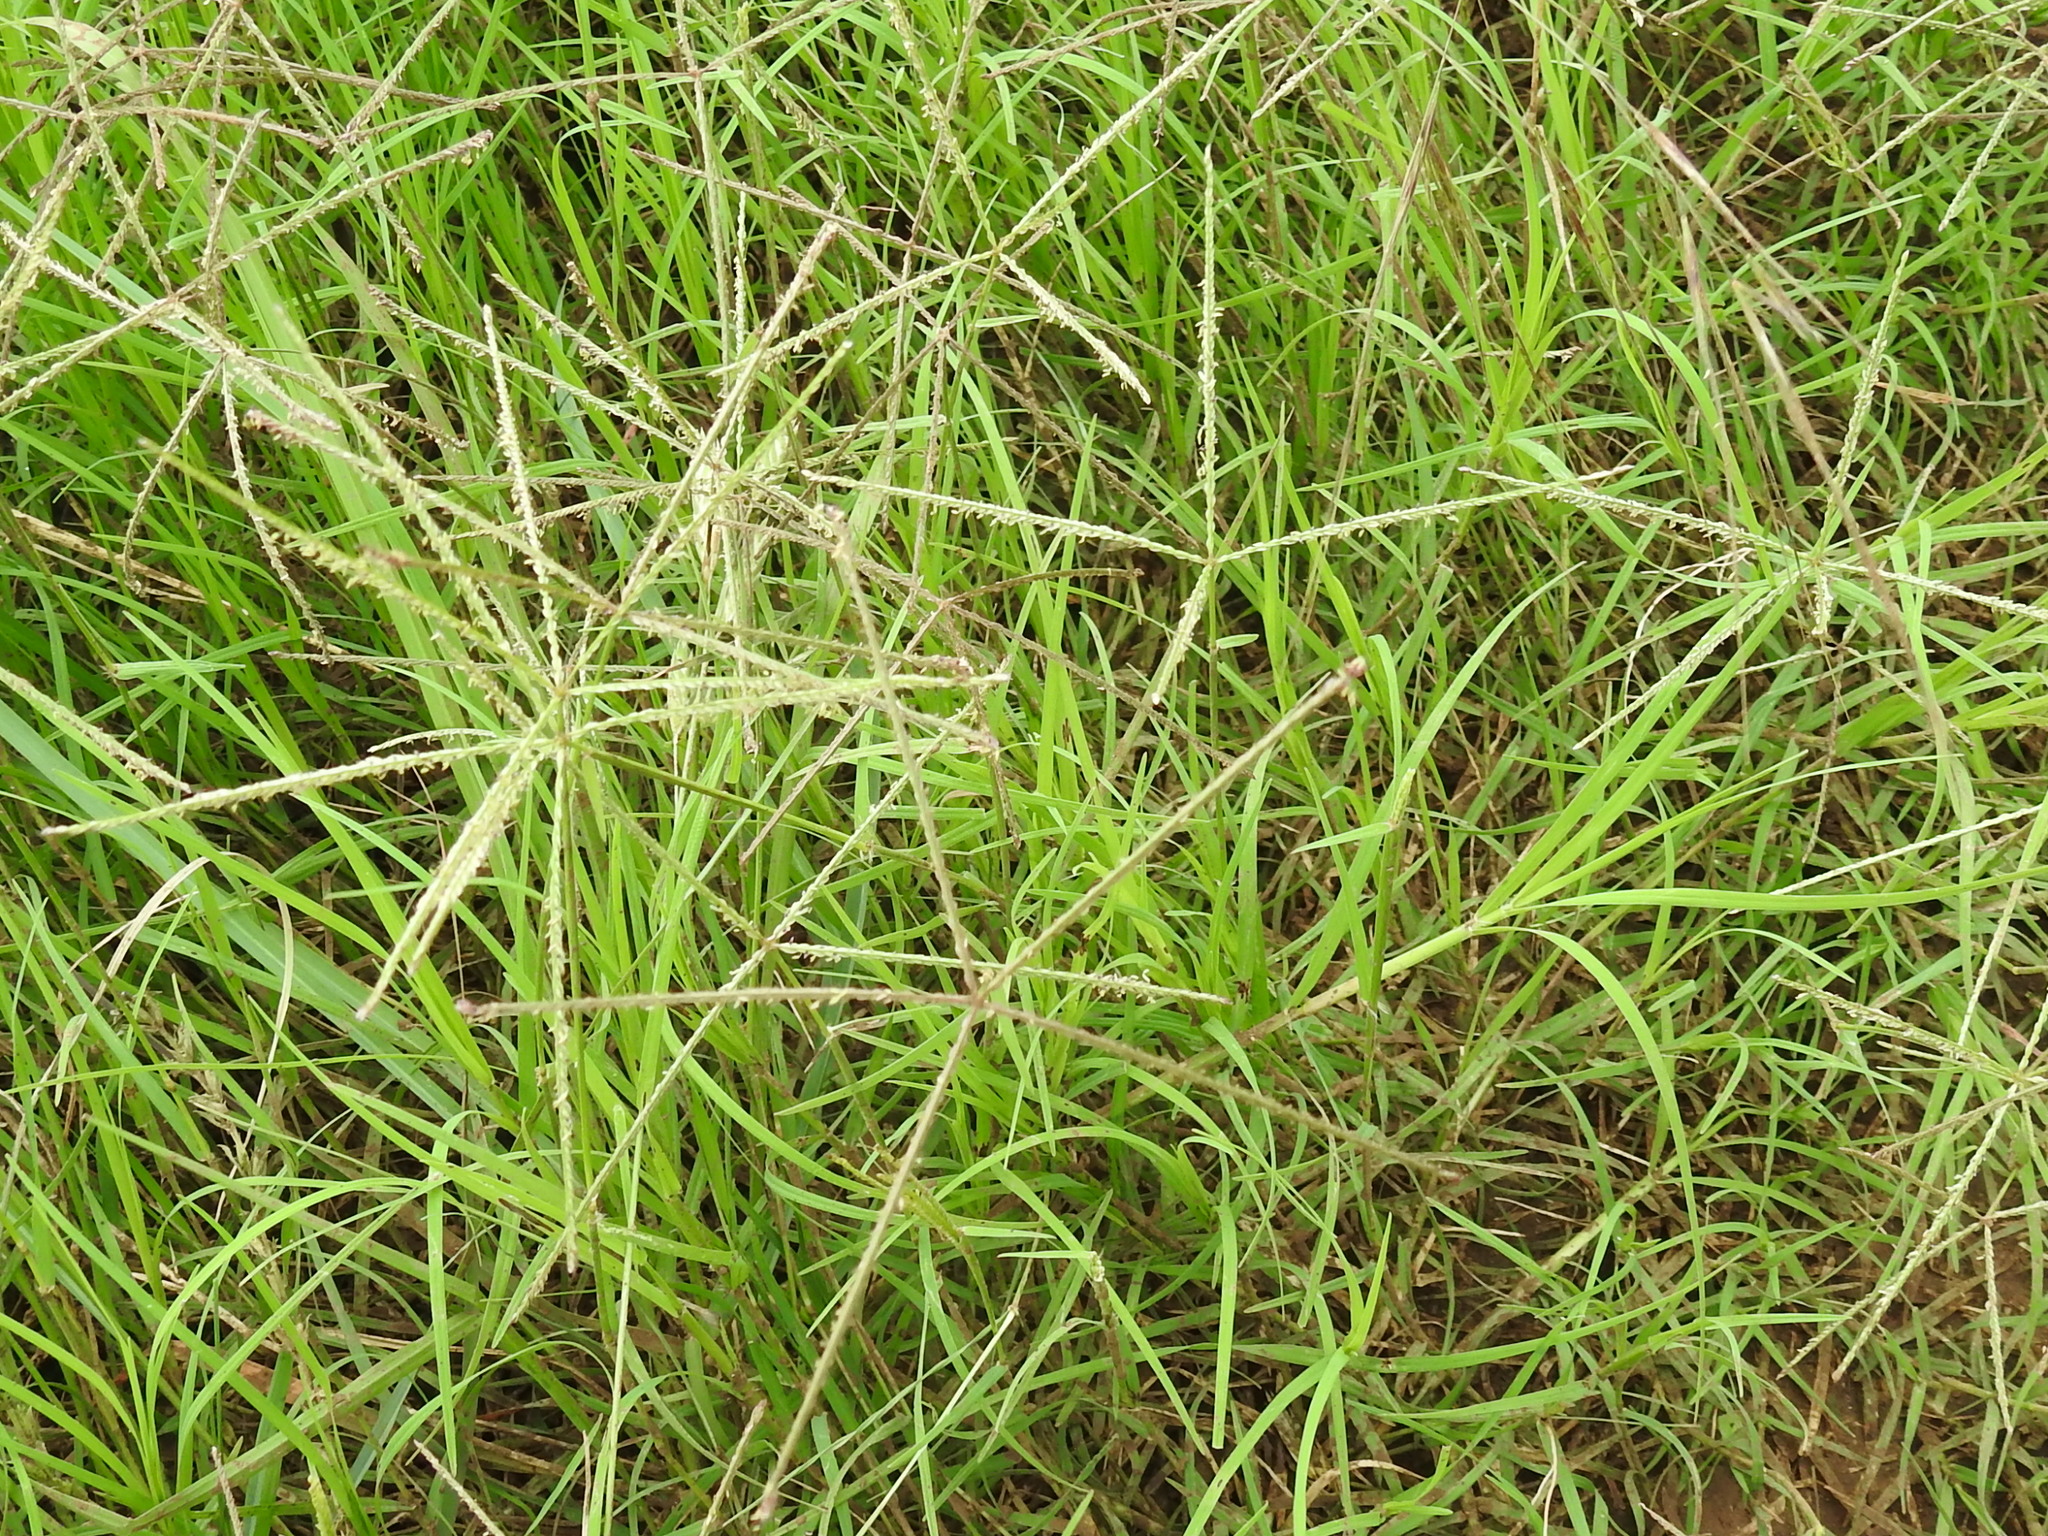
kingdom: Plantae
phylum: Tracheophyta
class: Liliopsida
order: Poales
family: Poaceae
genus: Cynodon
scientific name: Cynodon dactylon
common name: Bermuda grass
